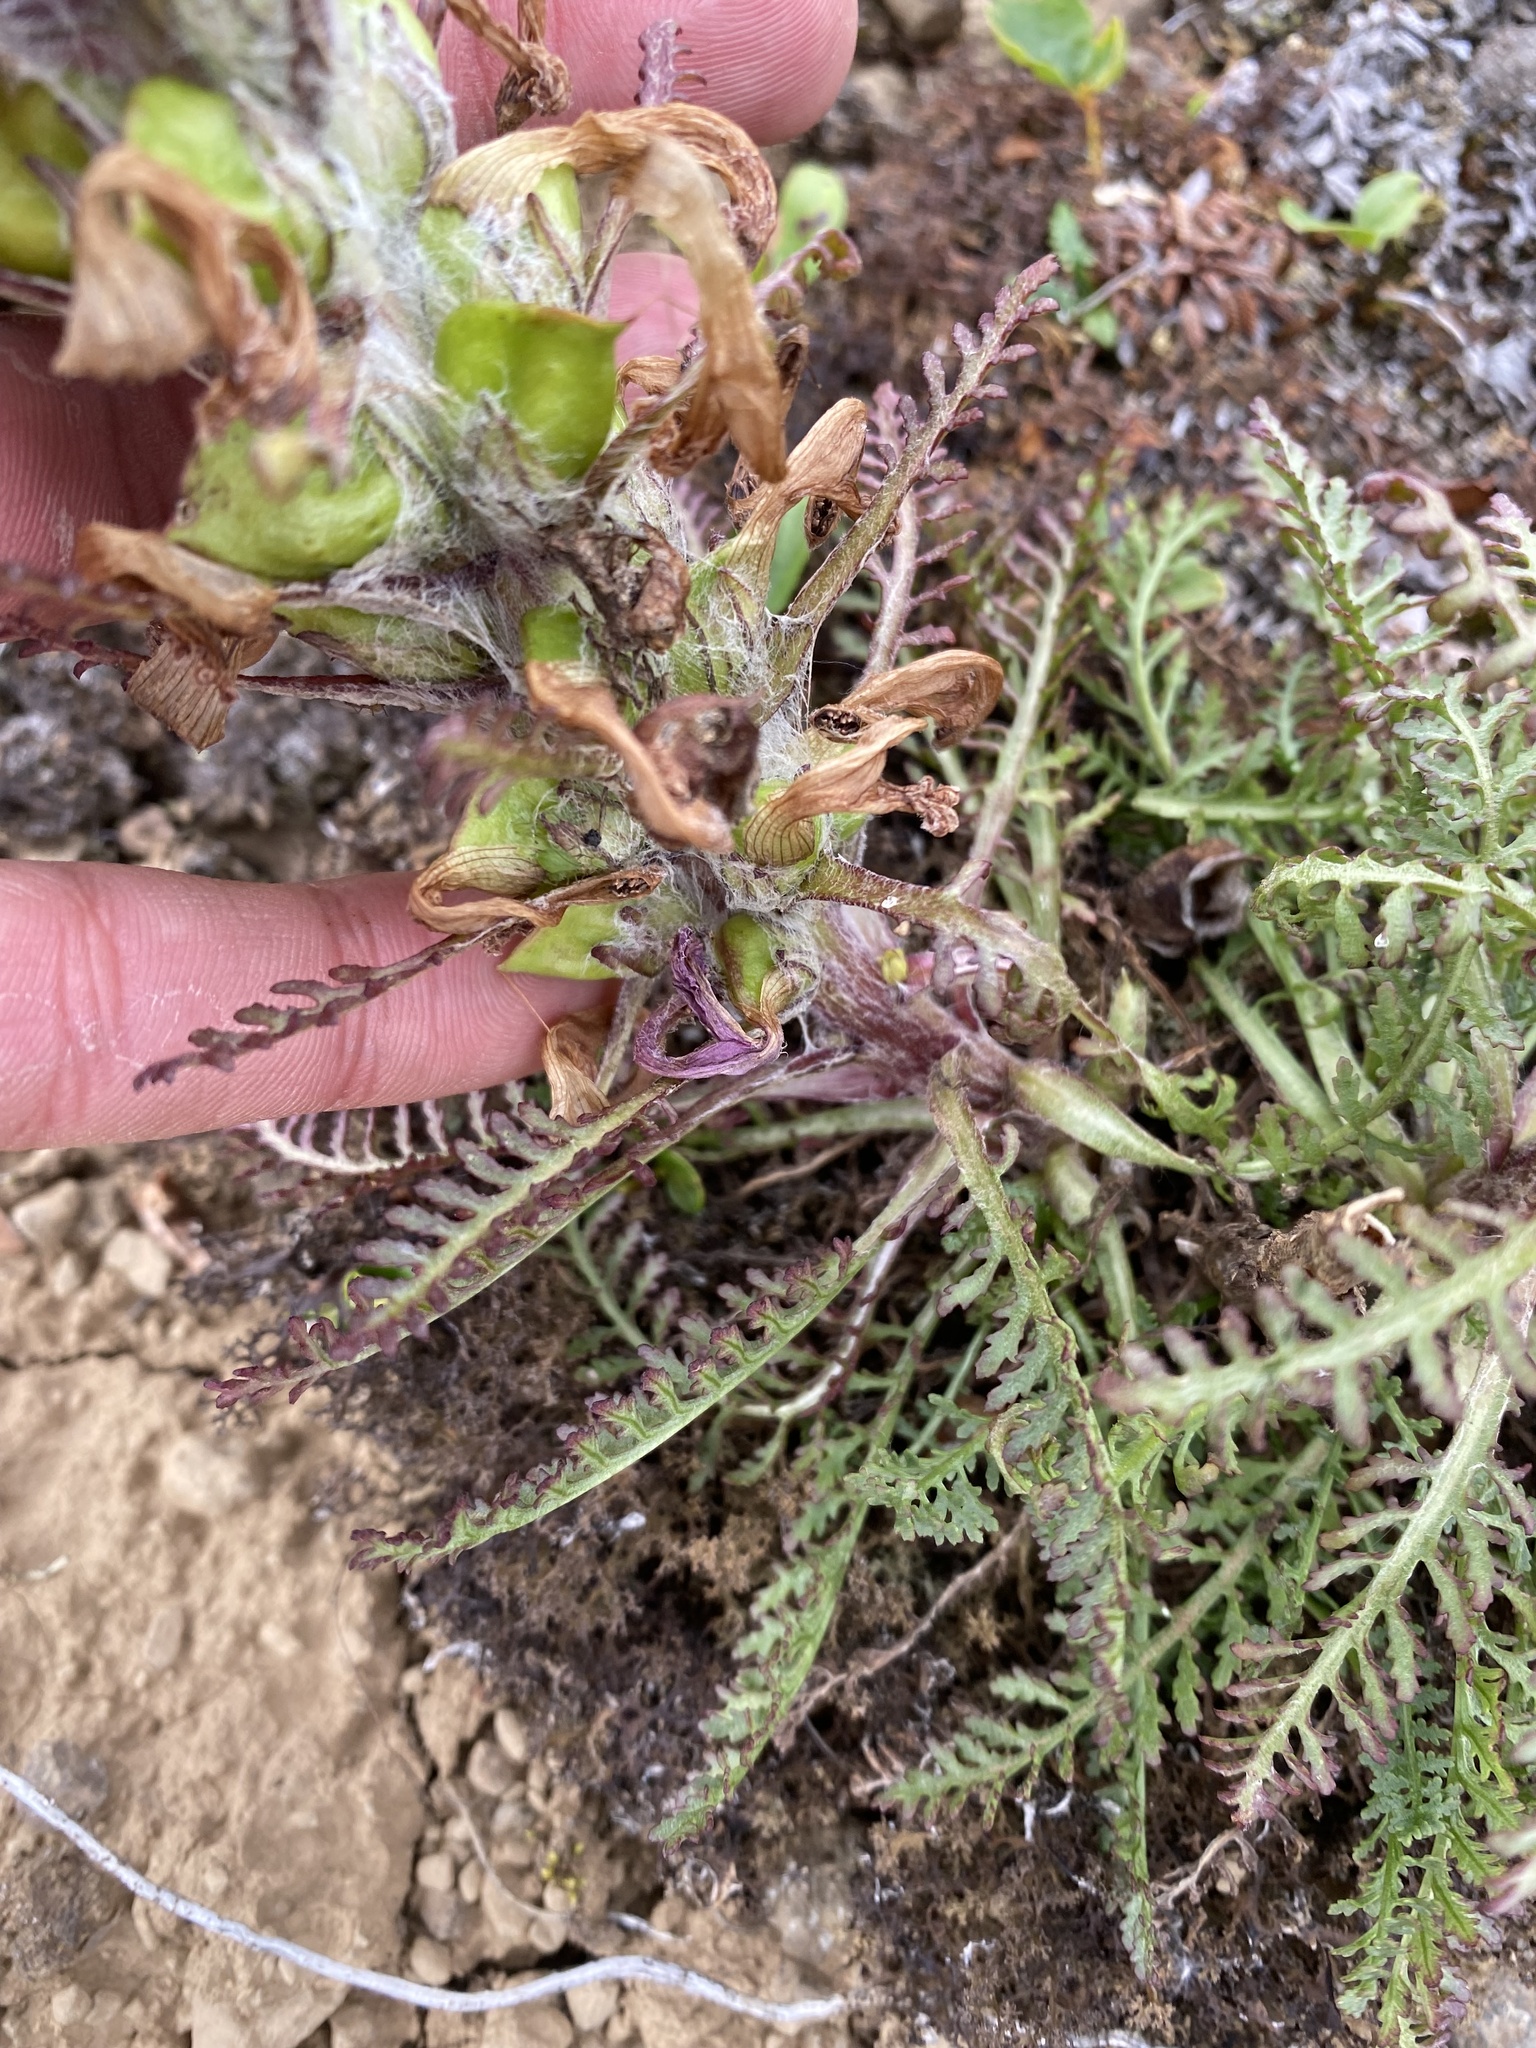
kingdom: Plantae
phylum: Tracheophyta
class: Magnoliopsida
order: Lamiales
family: Orobanchaceae
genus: Pedicularis
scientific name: Pedicularis alopecuroides
